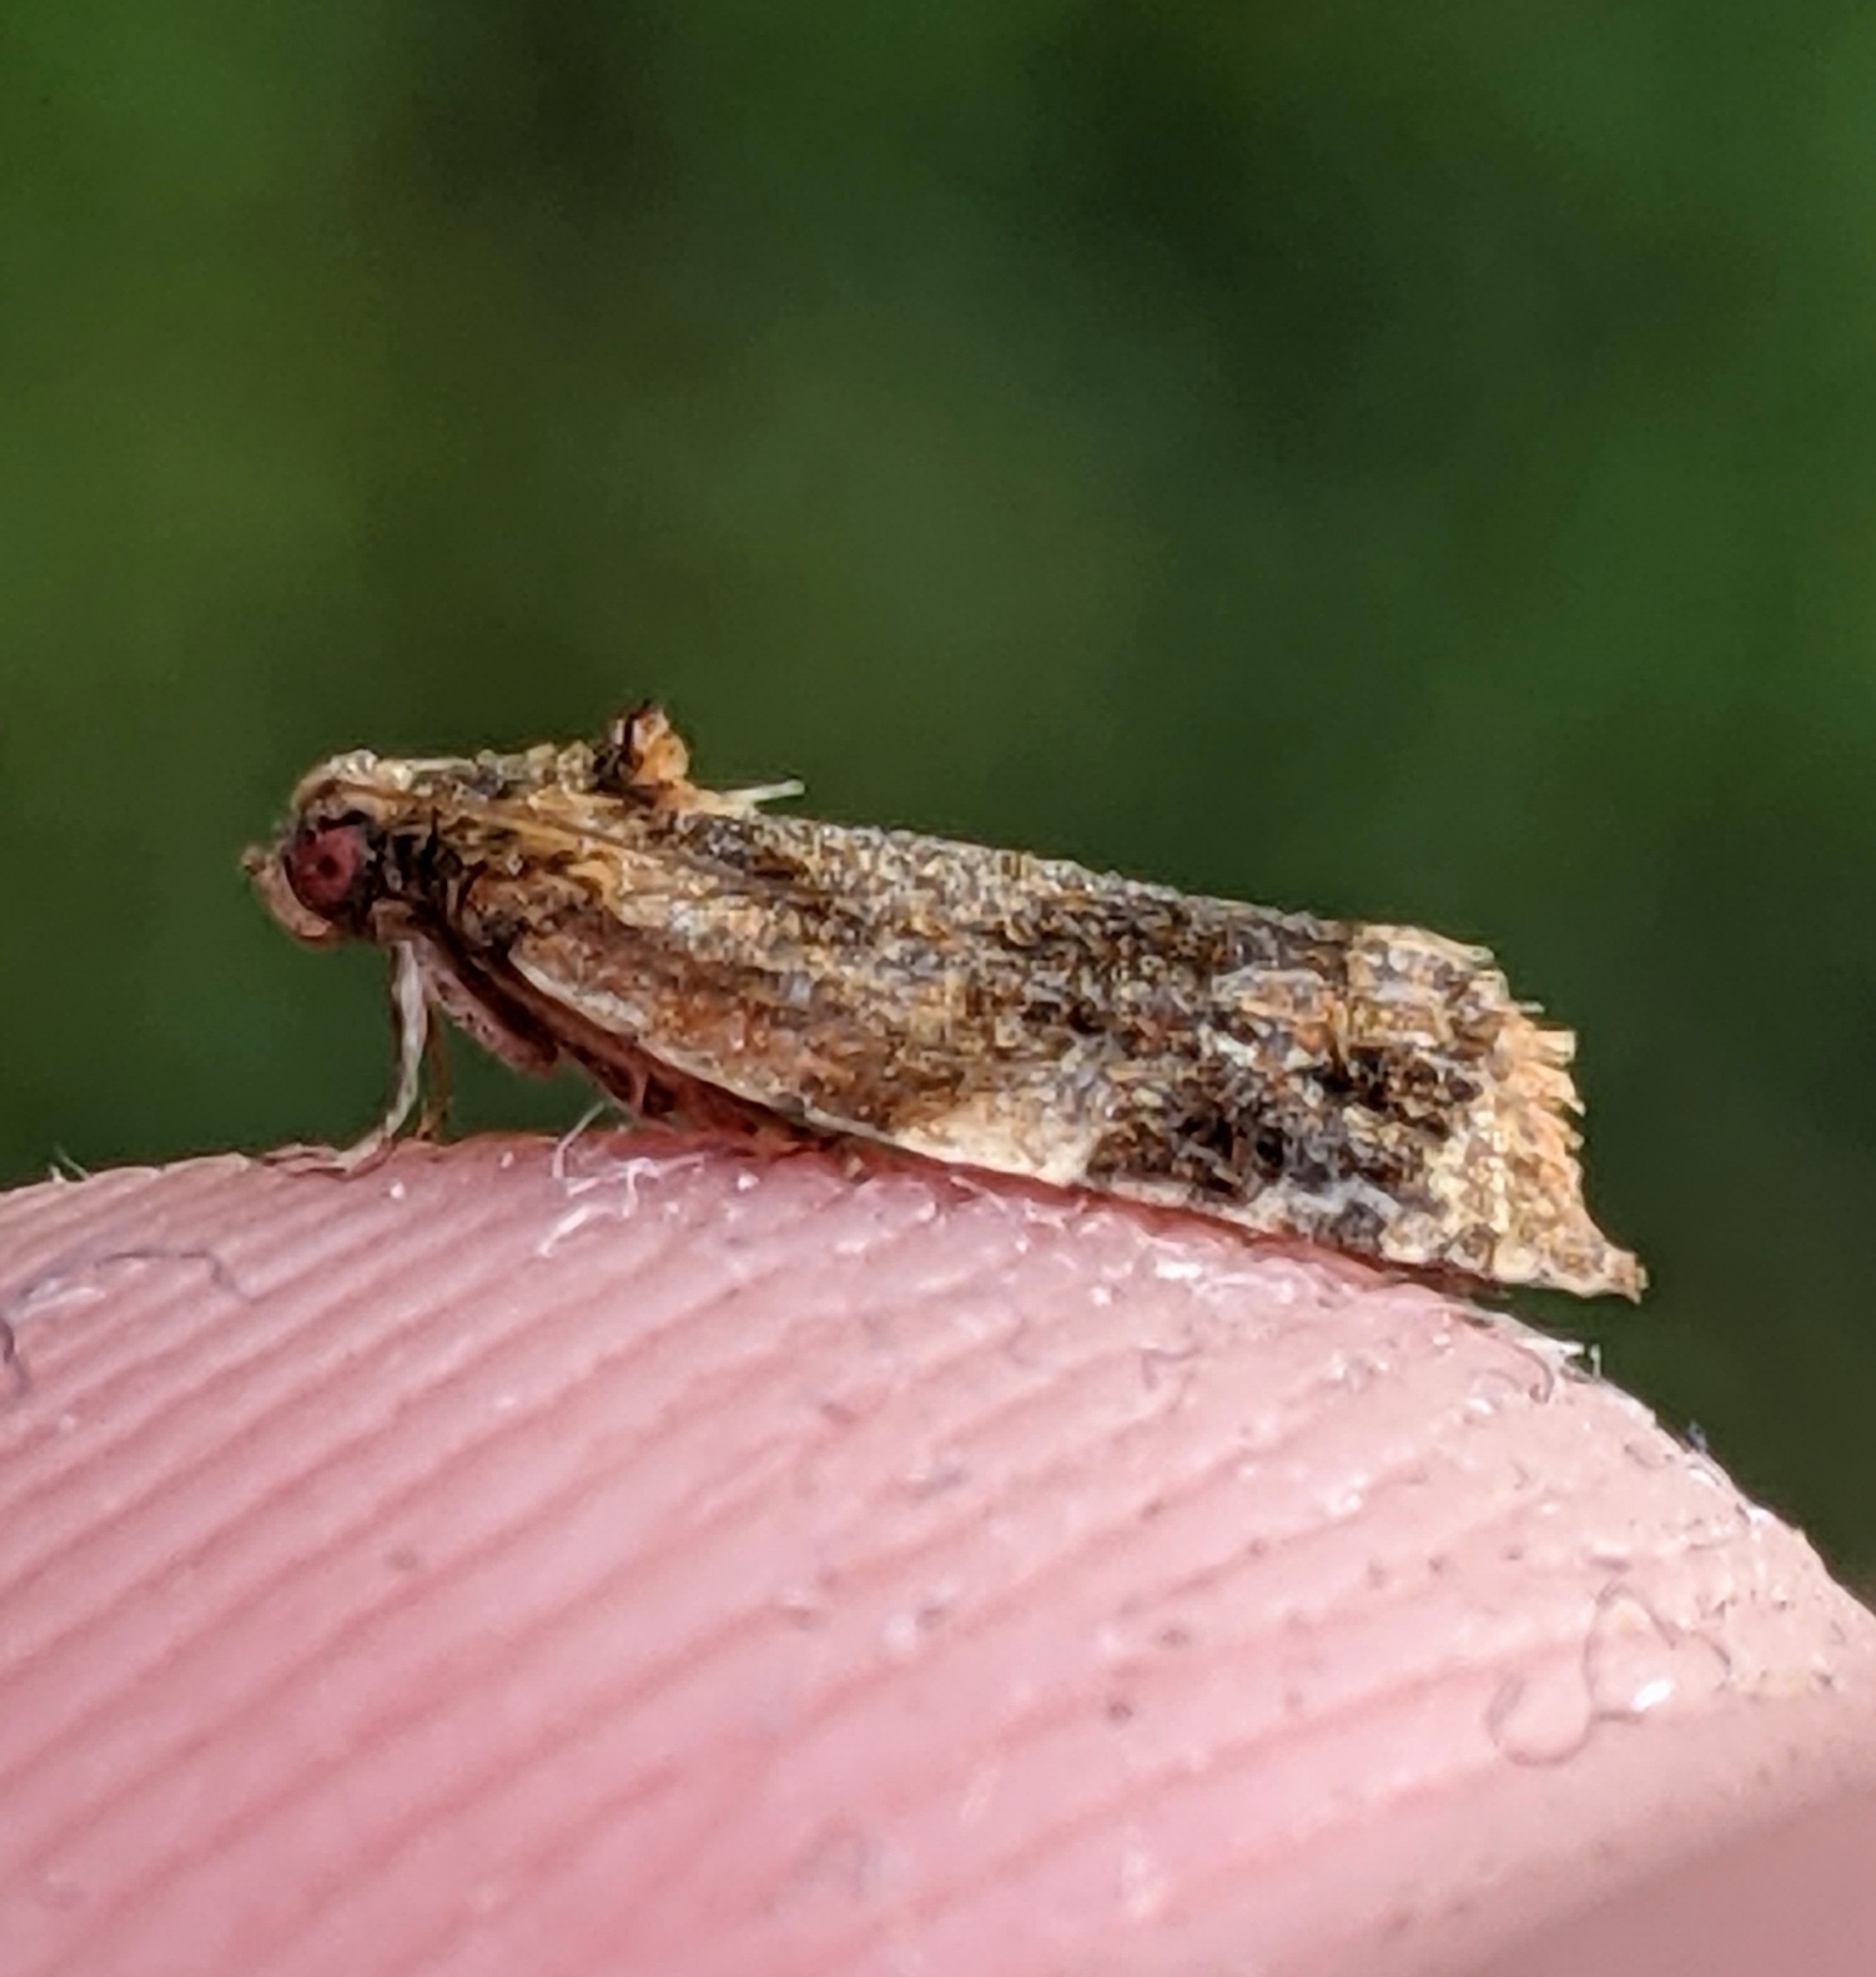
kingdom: Animalia
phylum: Arthropoda
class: Insecta
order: Lepidoptera
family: Tortricidae
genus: Ditula
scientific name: Ditula angustiorana
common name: Red-barred tortrix
